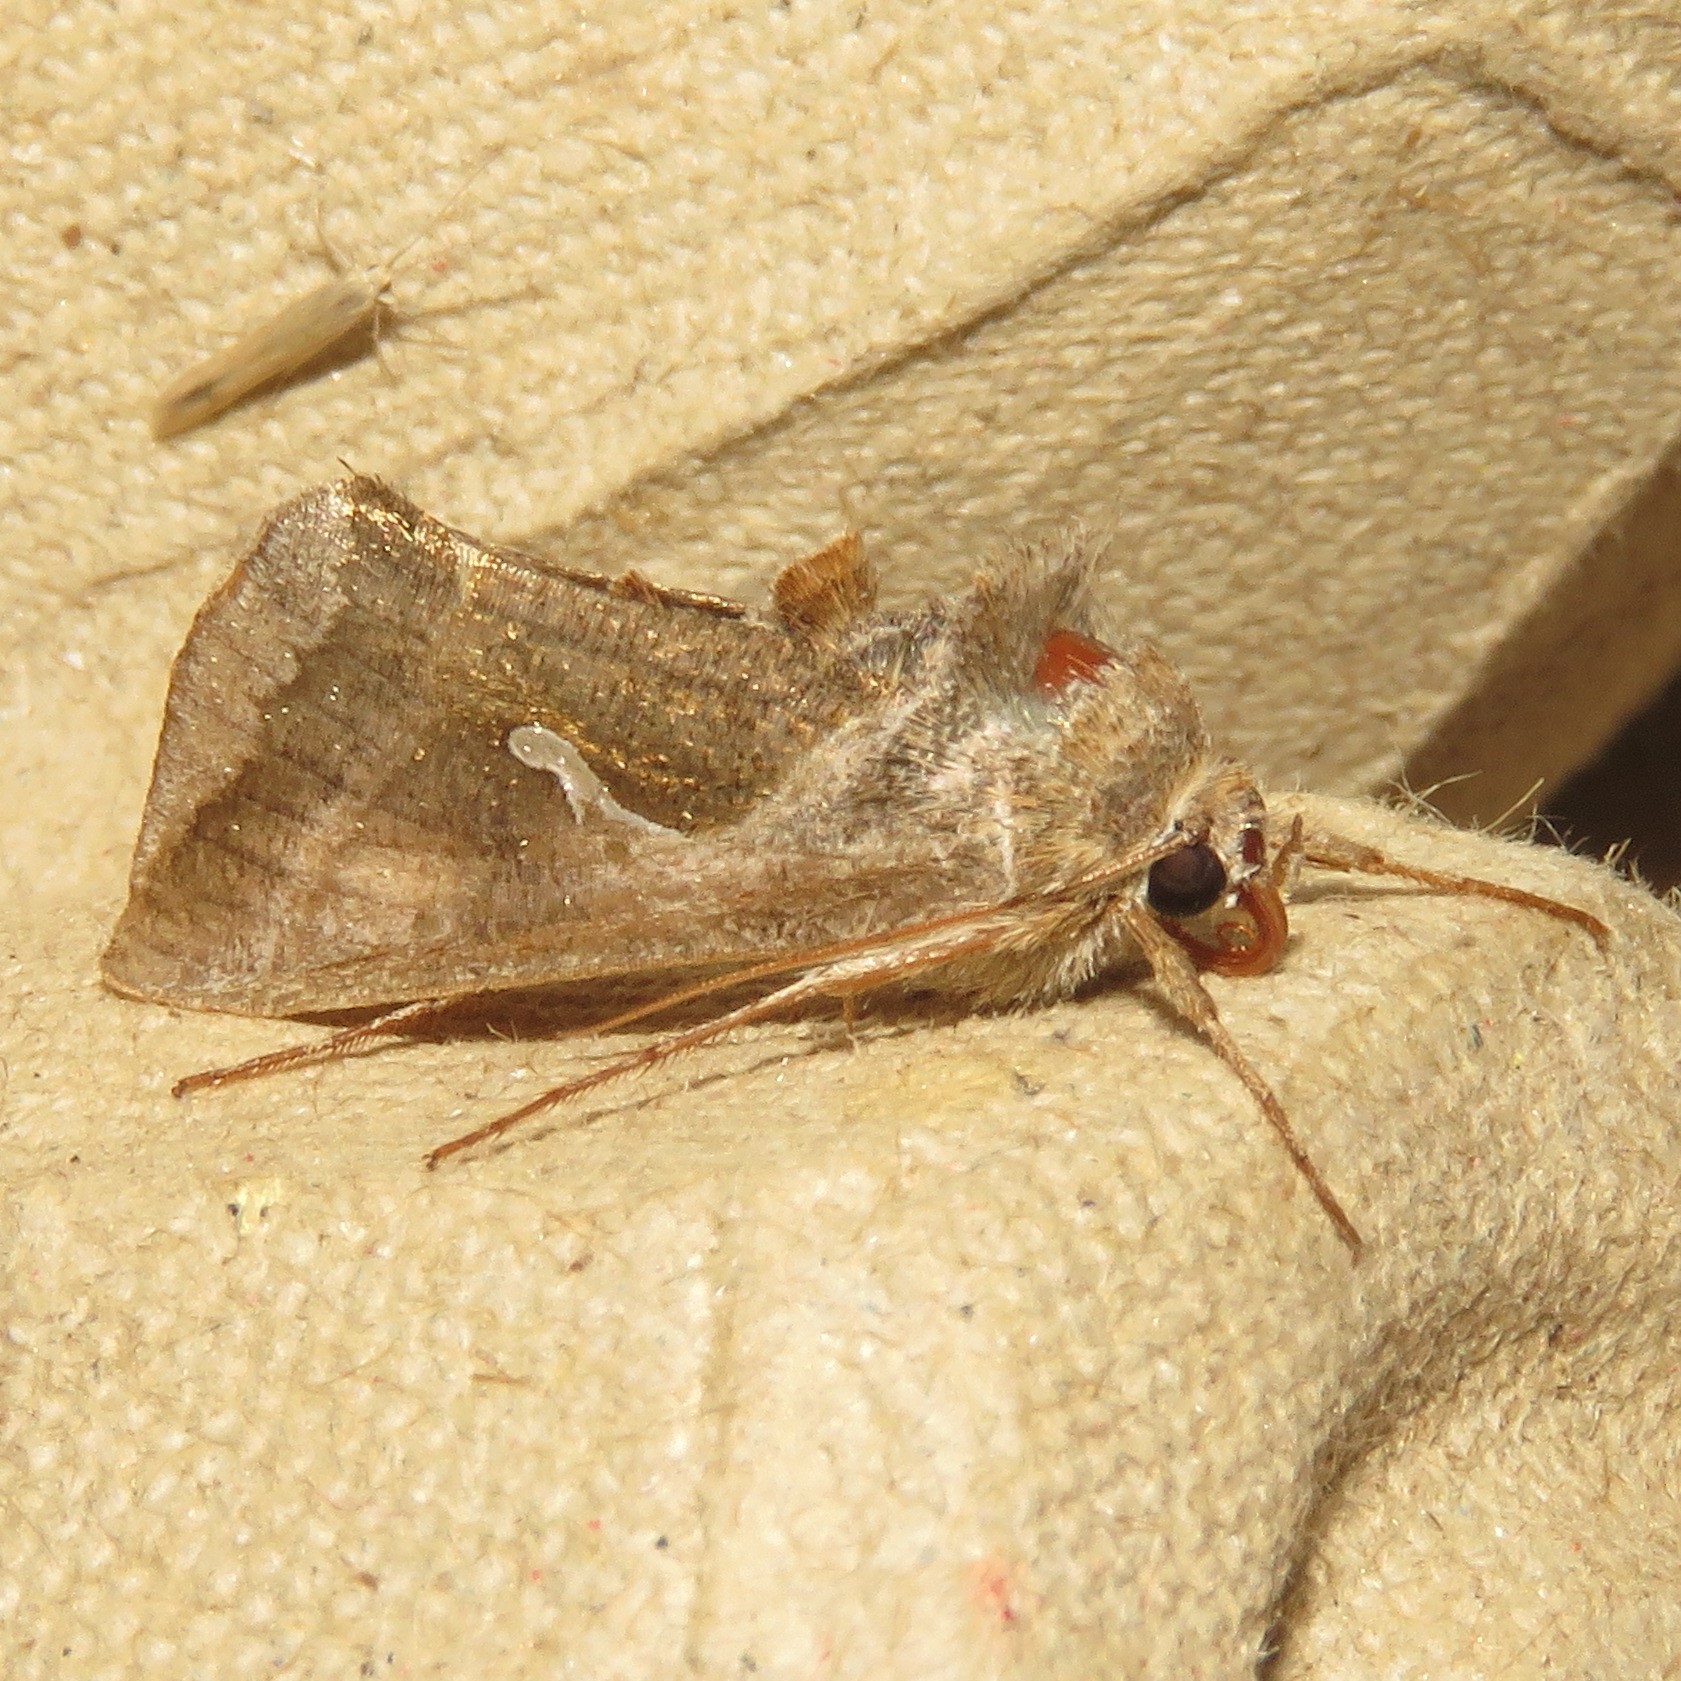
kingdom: Animalia
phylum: Arthropoda
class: Insecta
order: Lepidoptera
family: Noctuidae
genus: Anagrapha
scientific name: Anagrapha falcifera
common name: Celery looper
